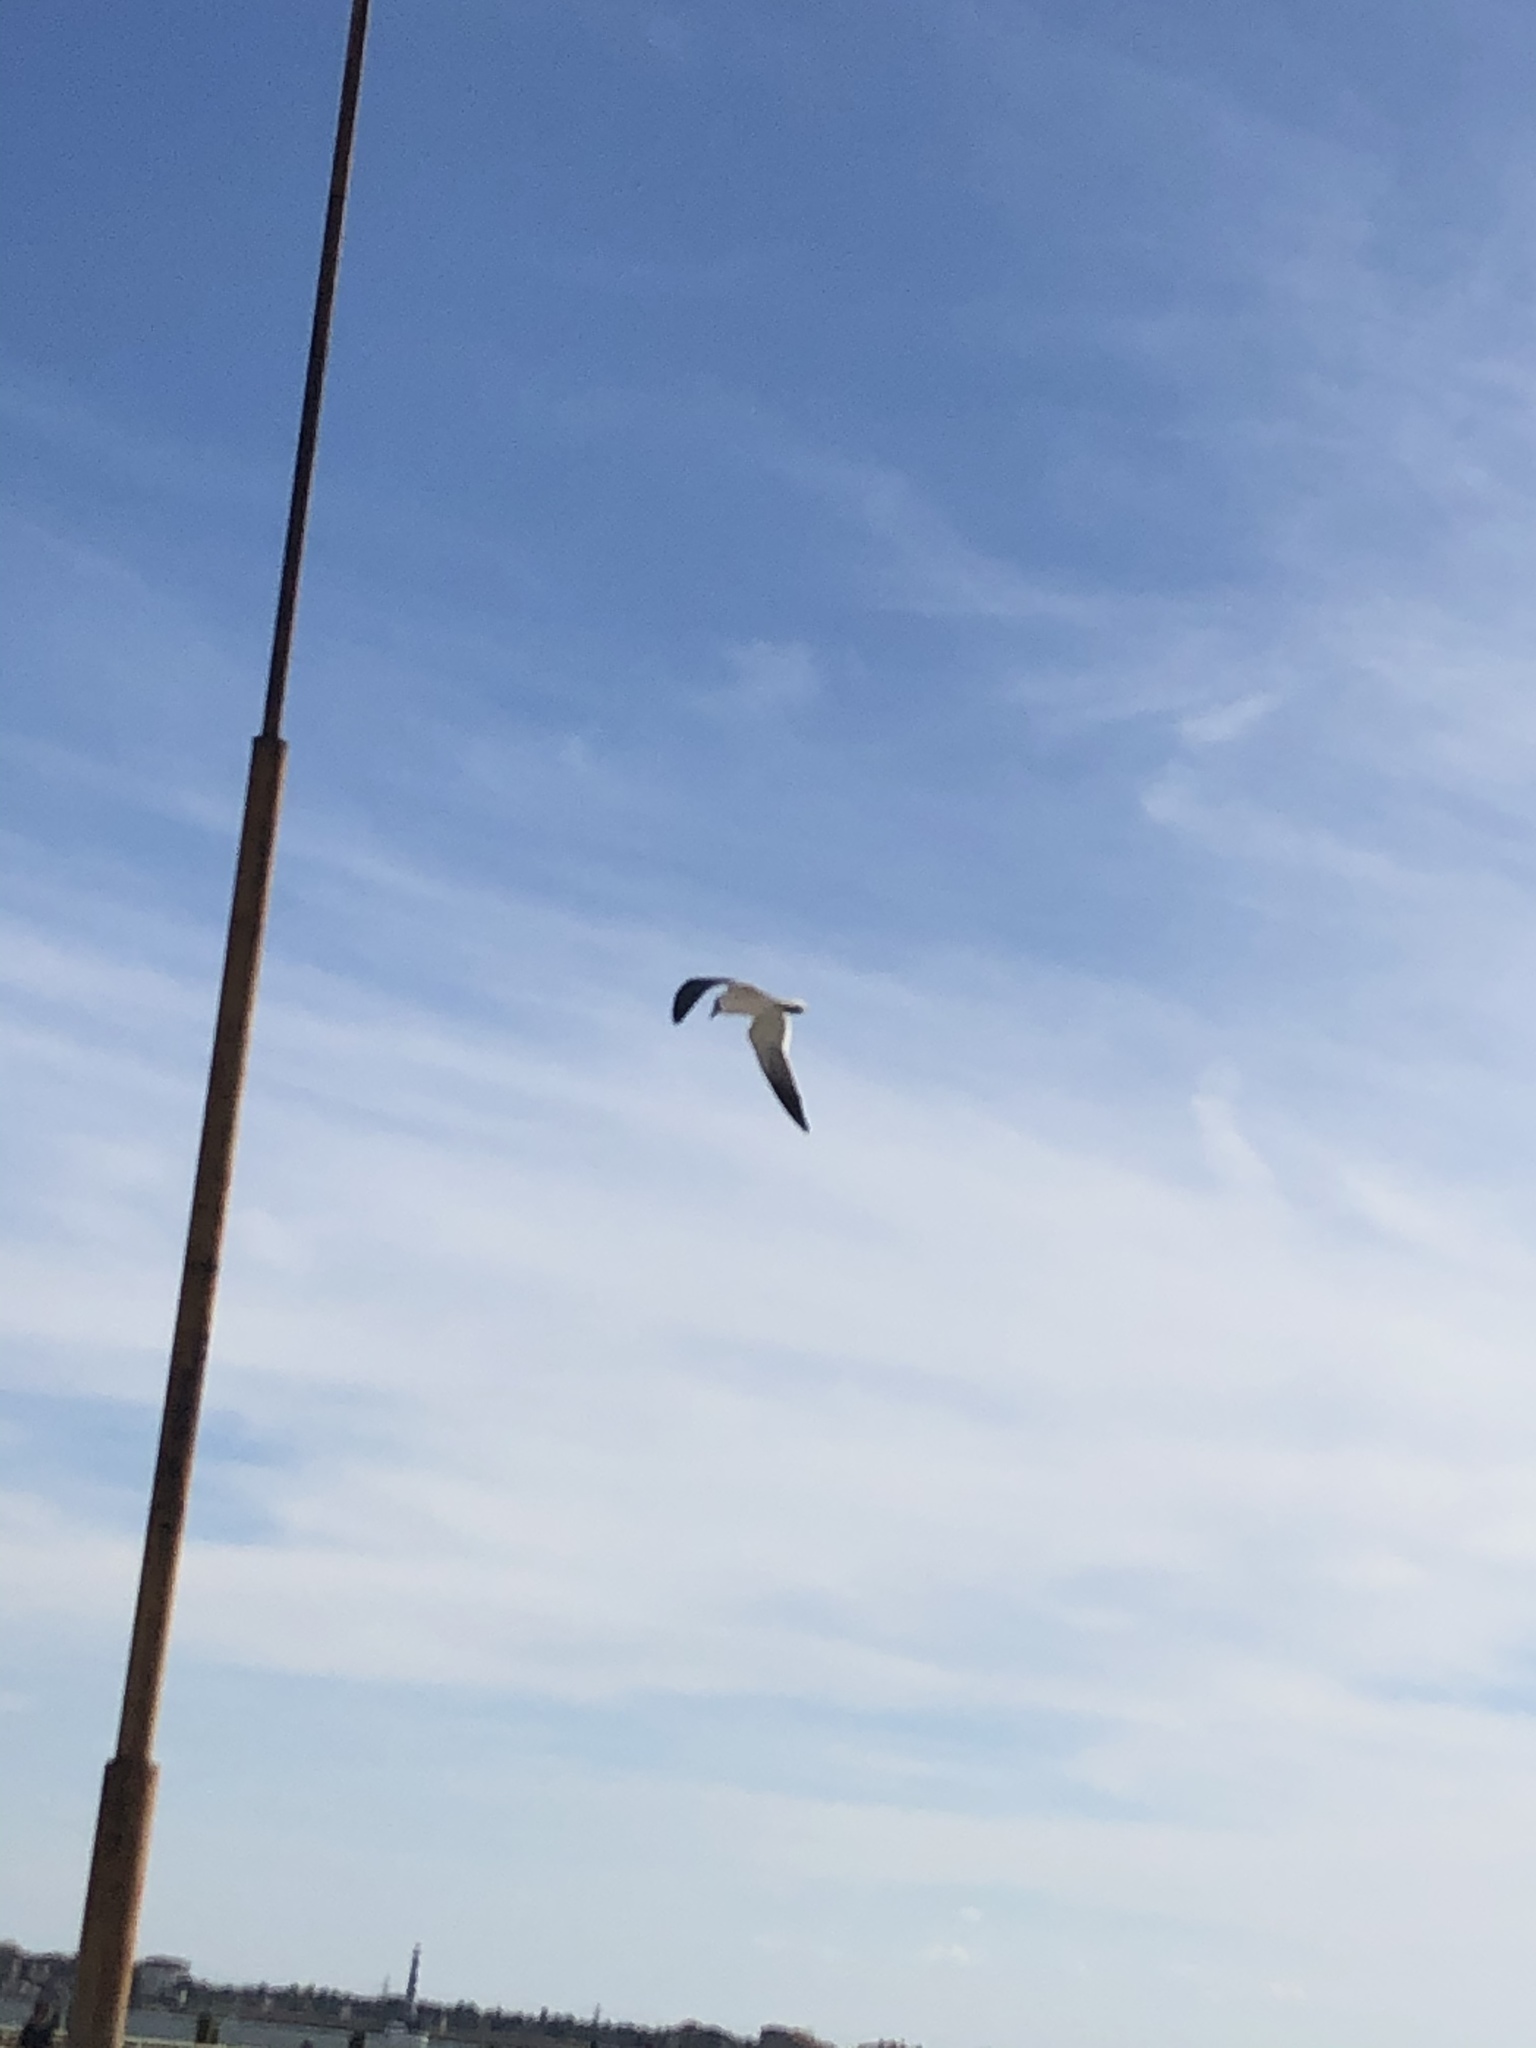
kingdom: Animalia
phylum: Chordata
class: Aves
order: Charadriiformes
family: Laridae
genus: Leucophaeus
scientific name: Leucophaeus atricilla
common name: Laughing gull
